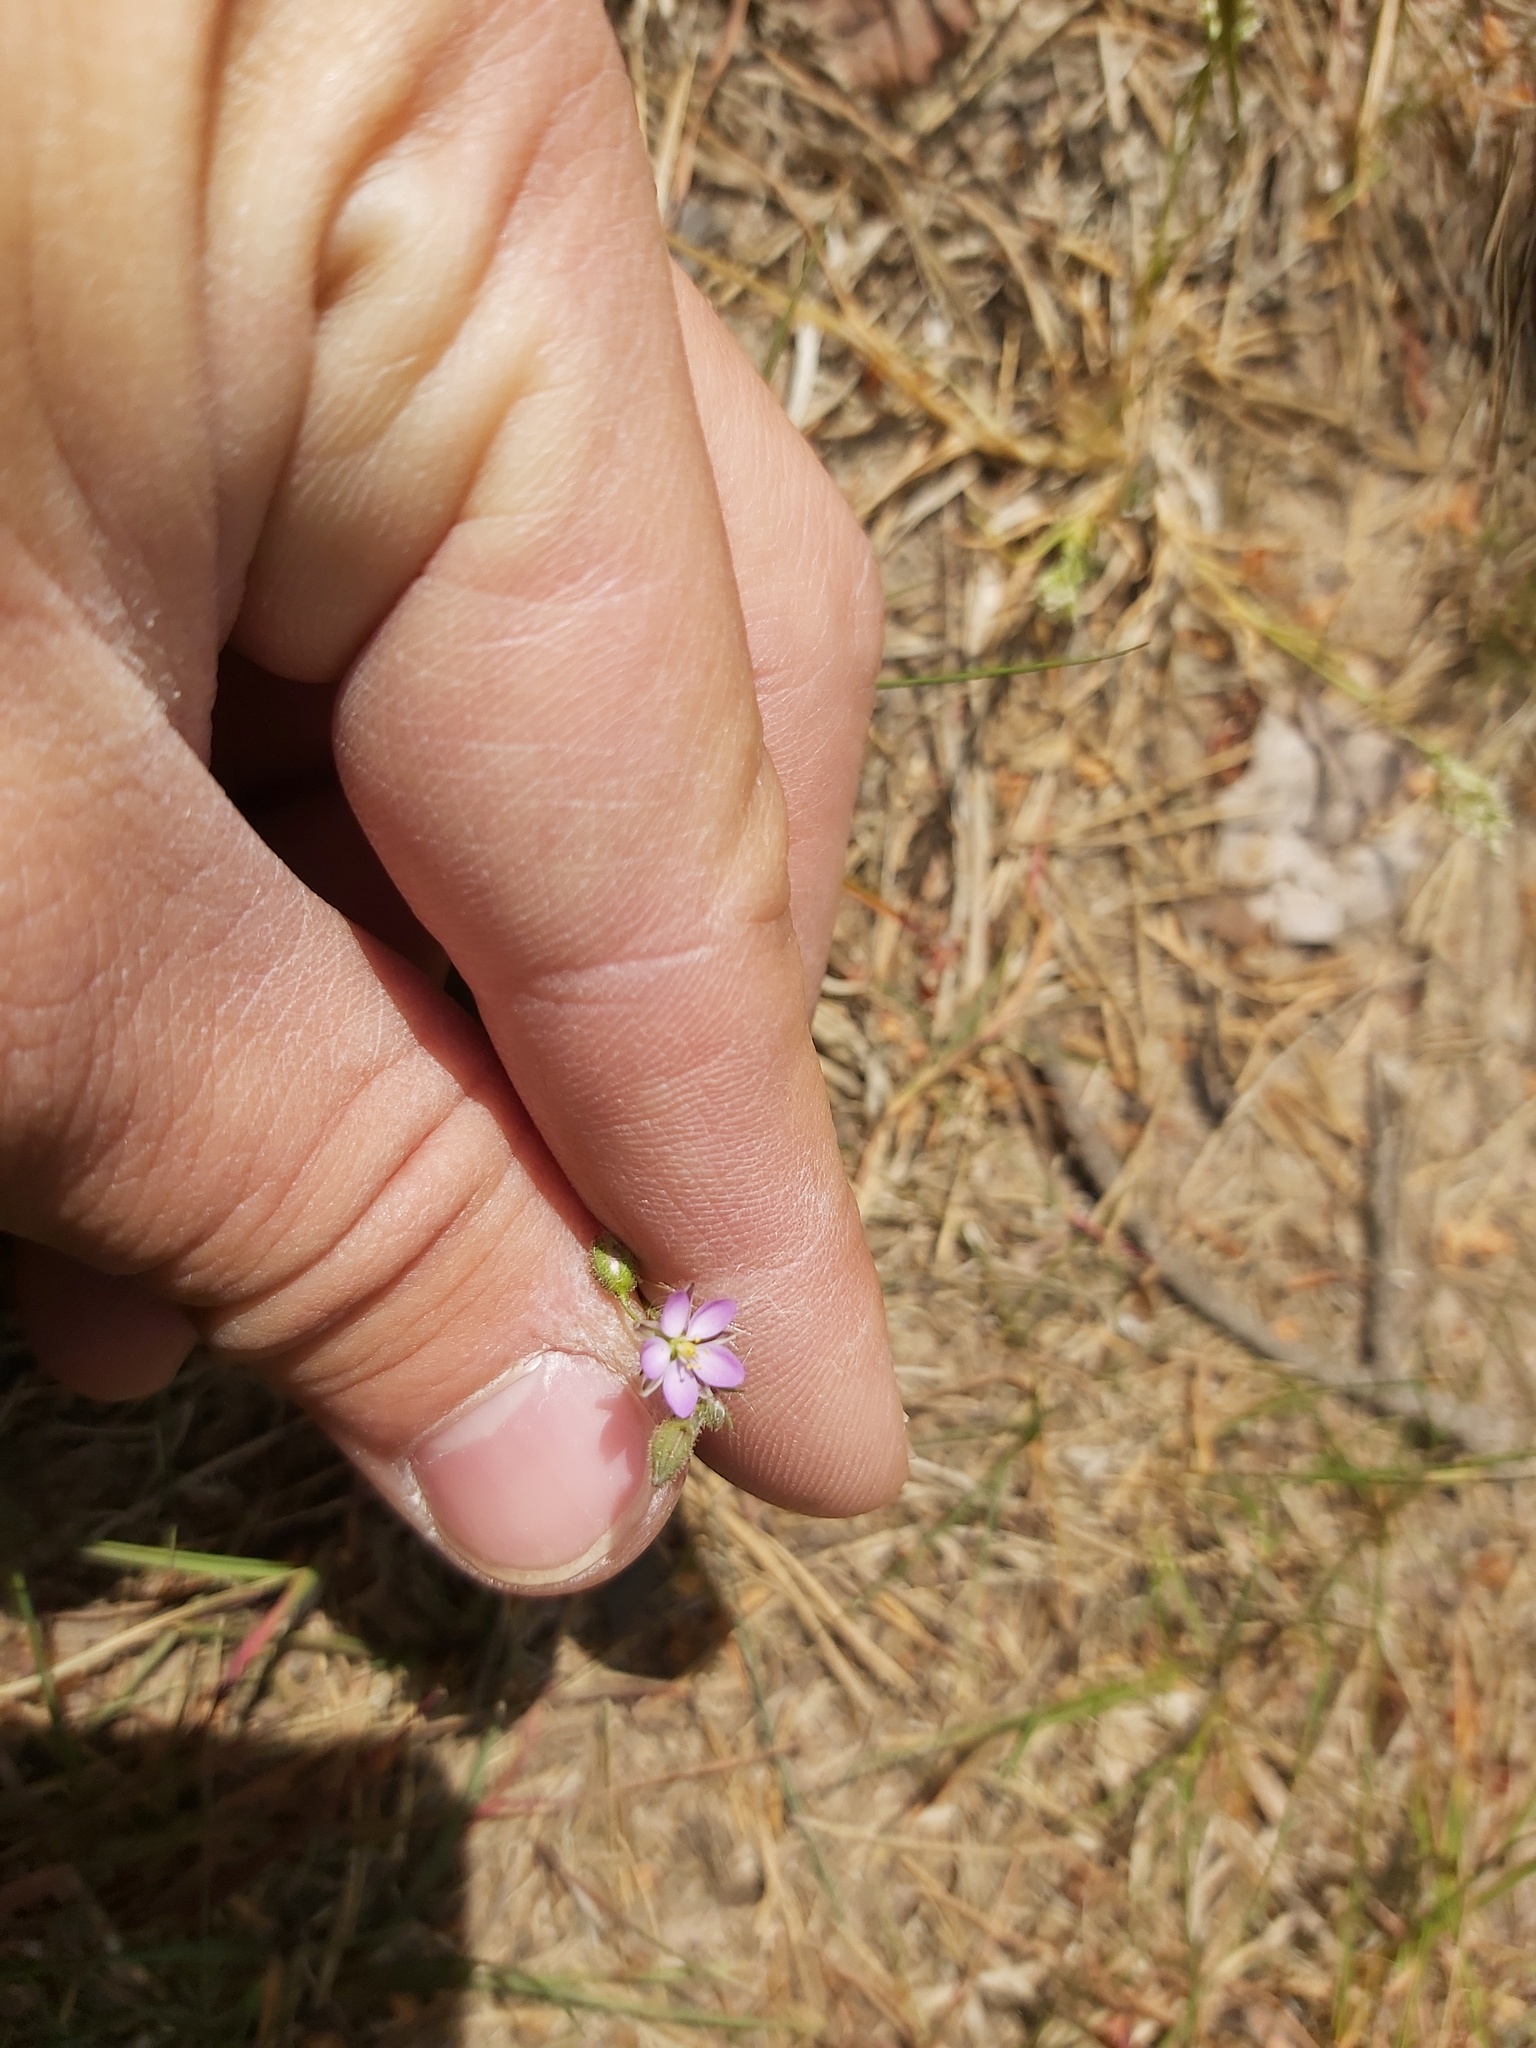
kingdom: Plantae
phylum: Tracheophyta
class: Magnoliopsida
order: Caryophyllales
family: Caryophyllaceae
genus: Spergularia
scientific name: Spergularia rubra
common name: Red sand-spurrey
